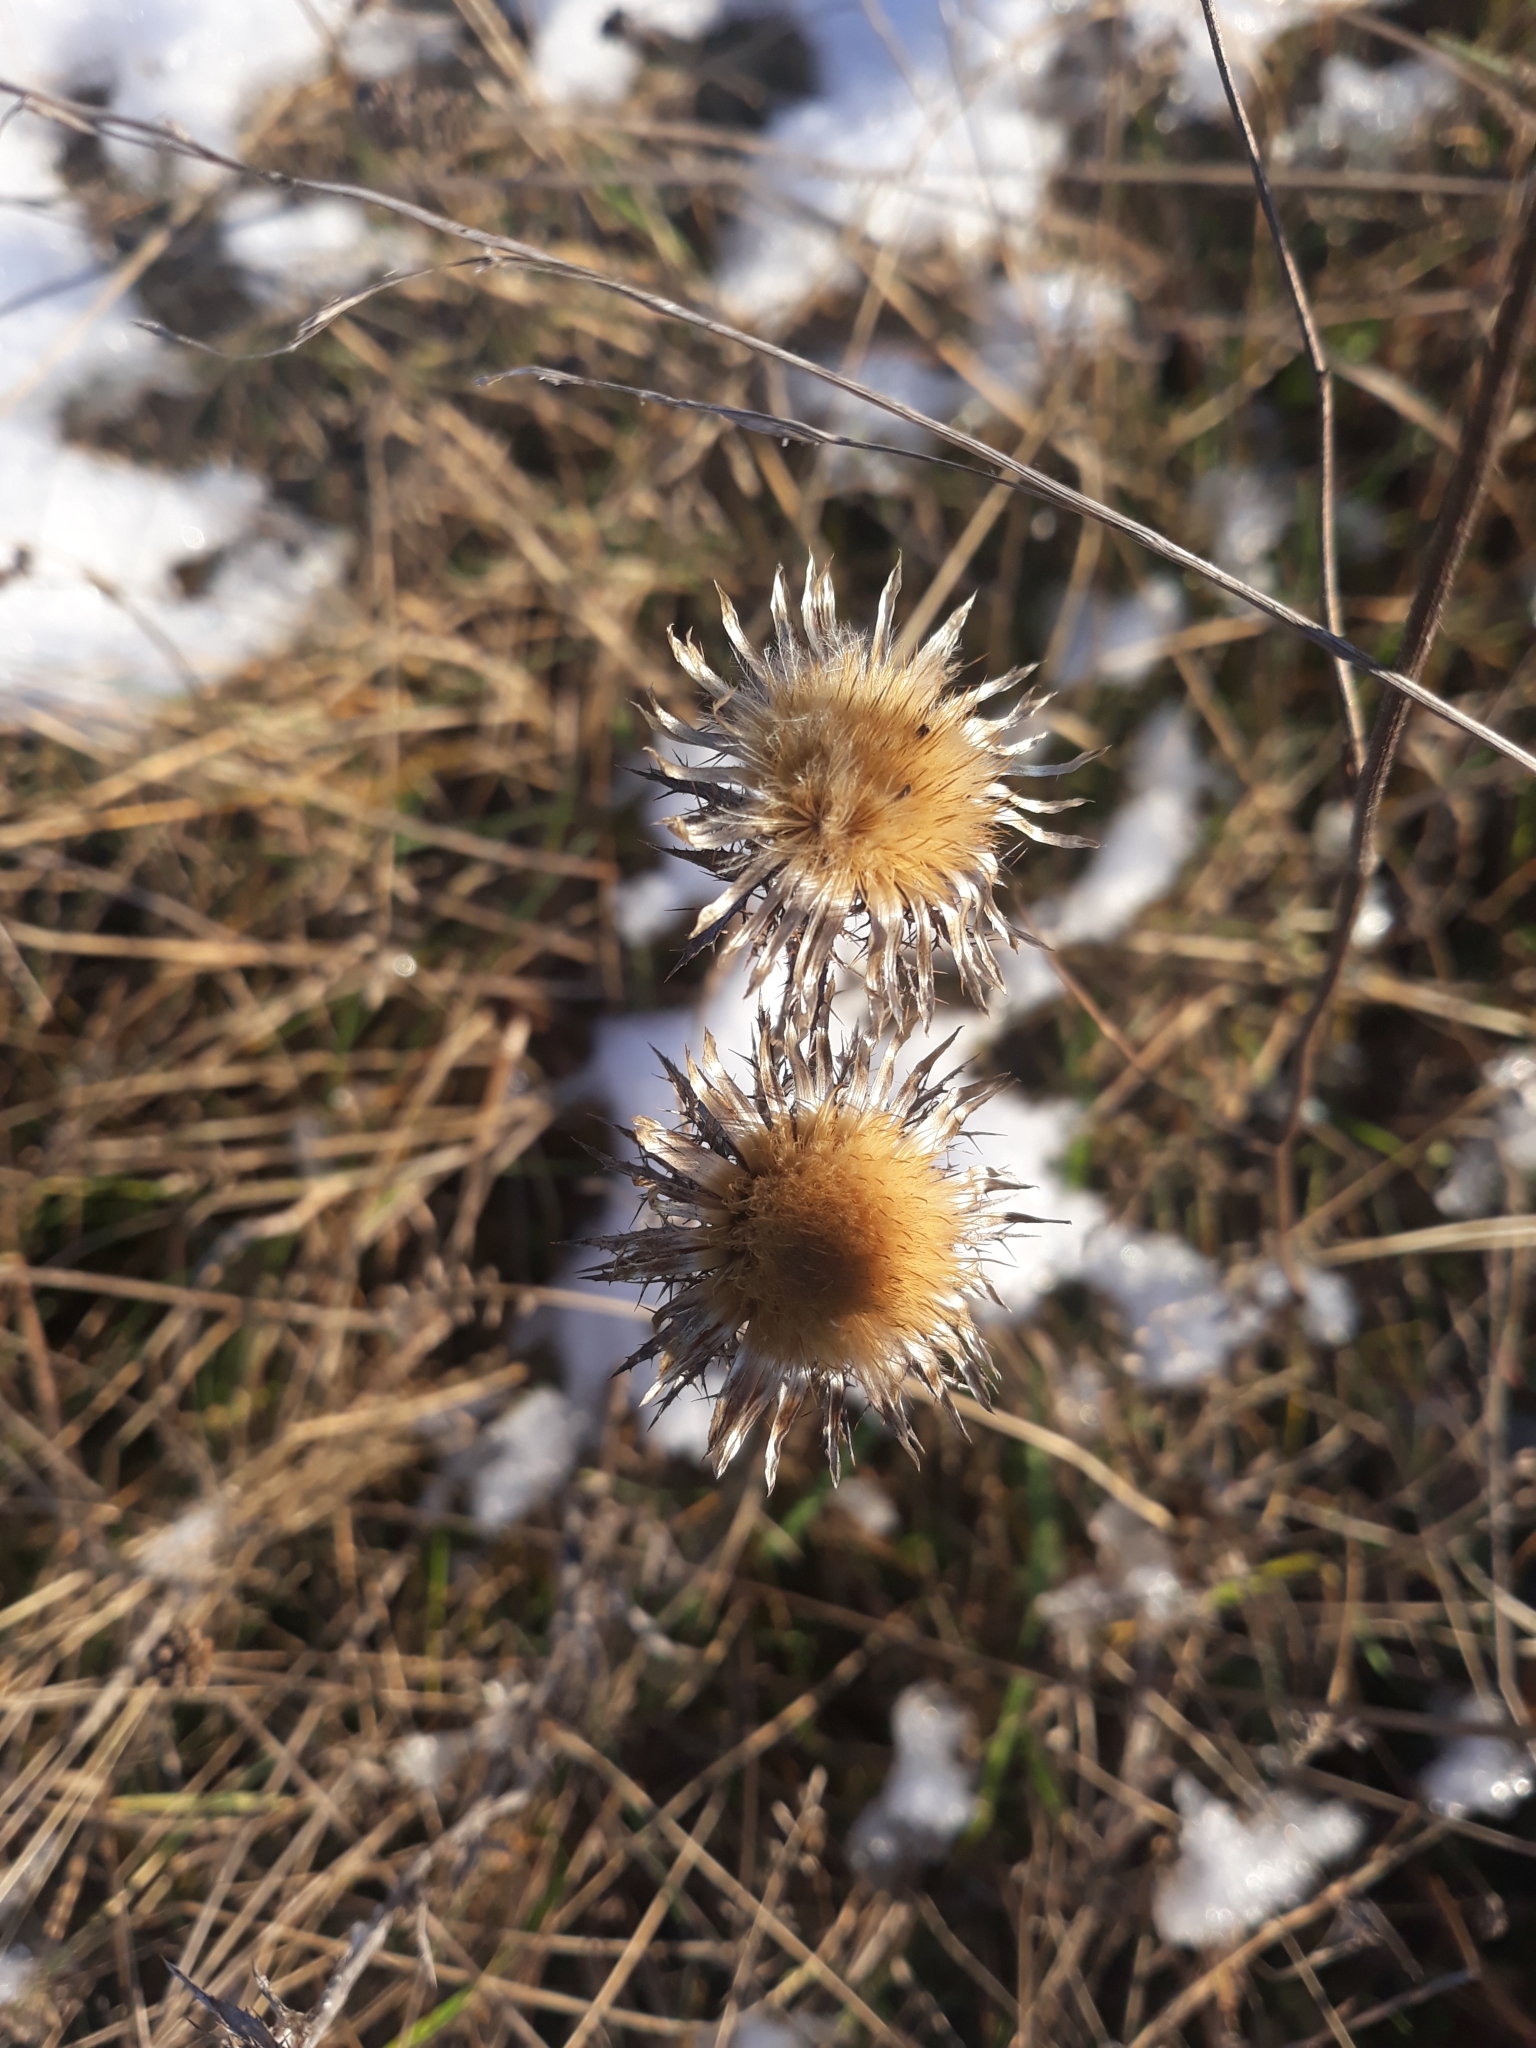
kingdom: Plantae
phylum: Tracheophyta
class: Magnoliopsida
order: Asterales
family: Asteraceae
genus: Carlina
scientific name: Carlina biebersteinii
